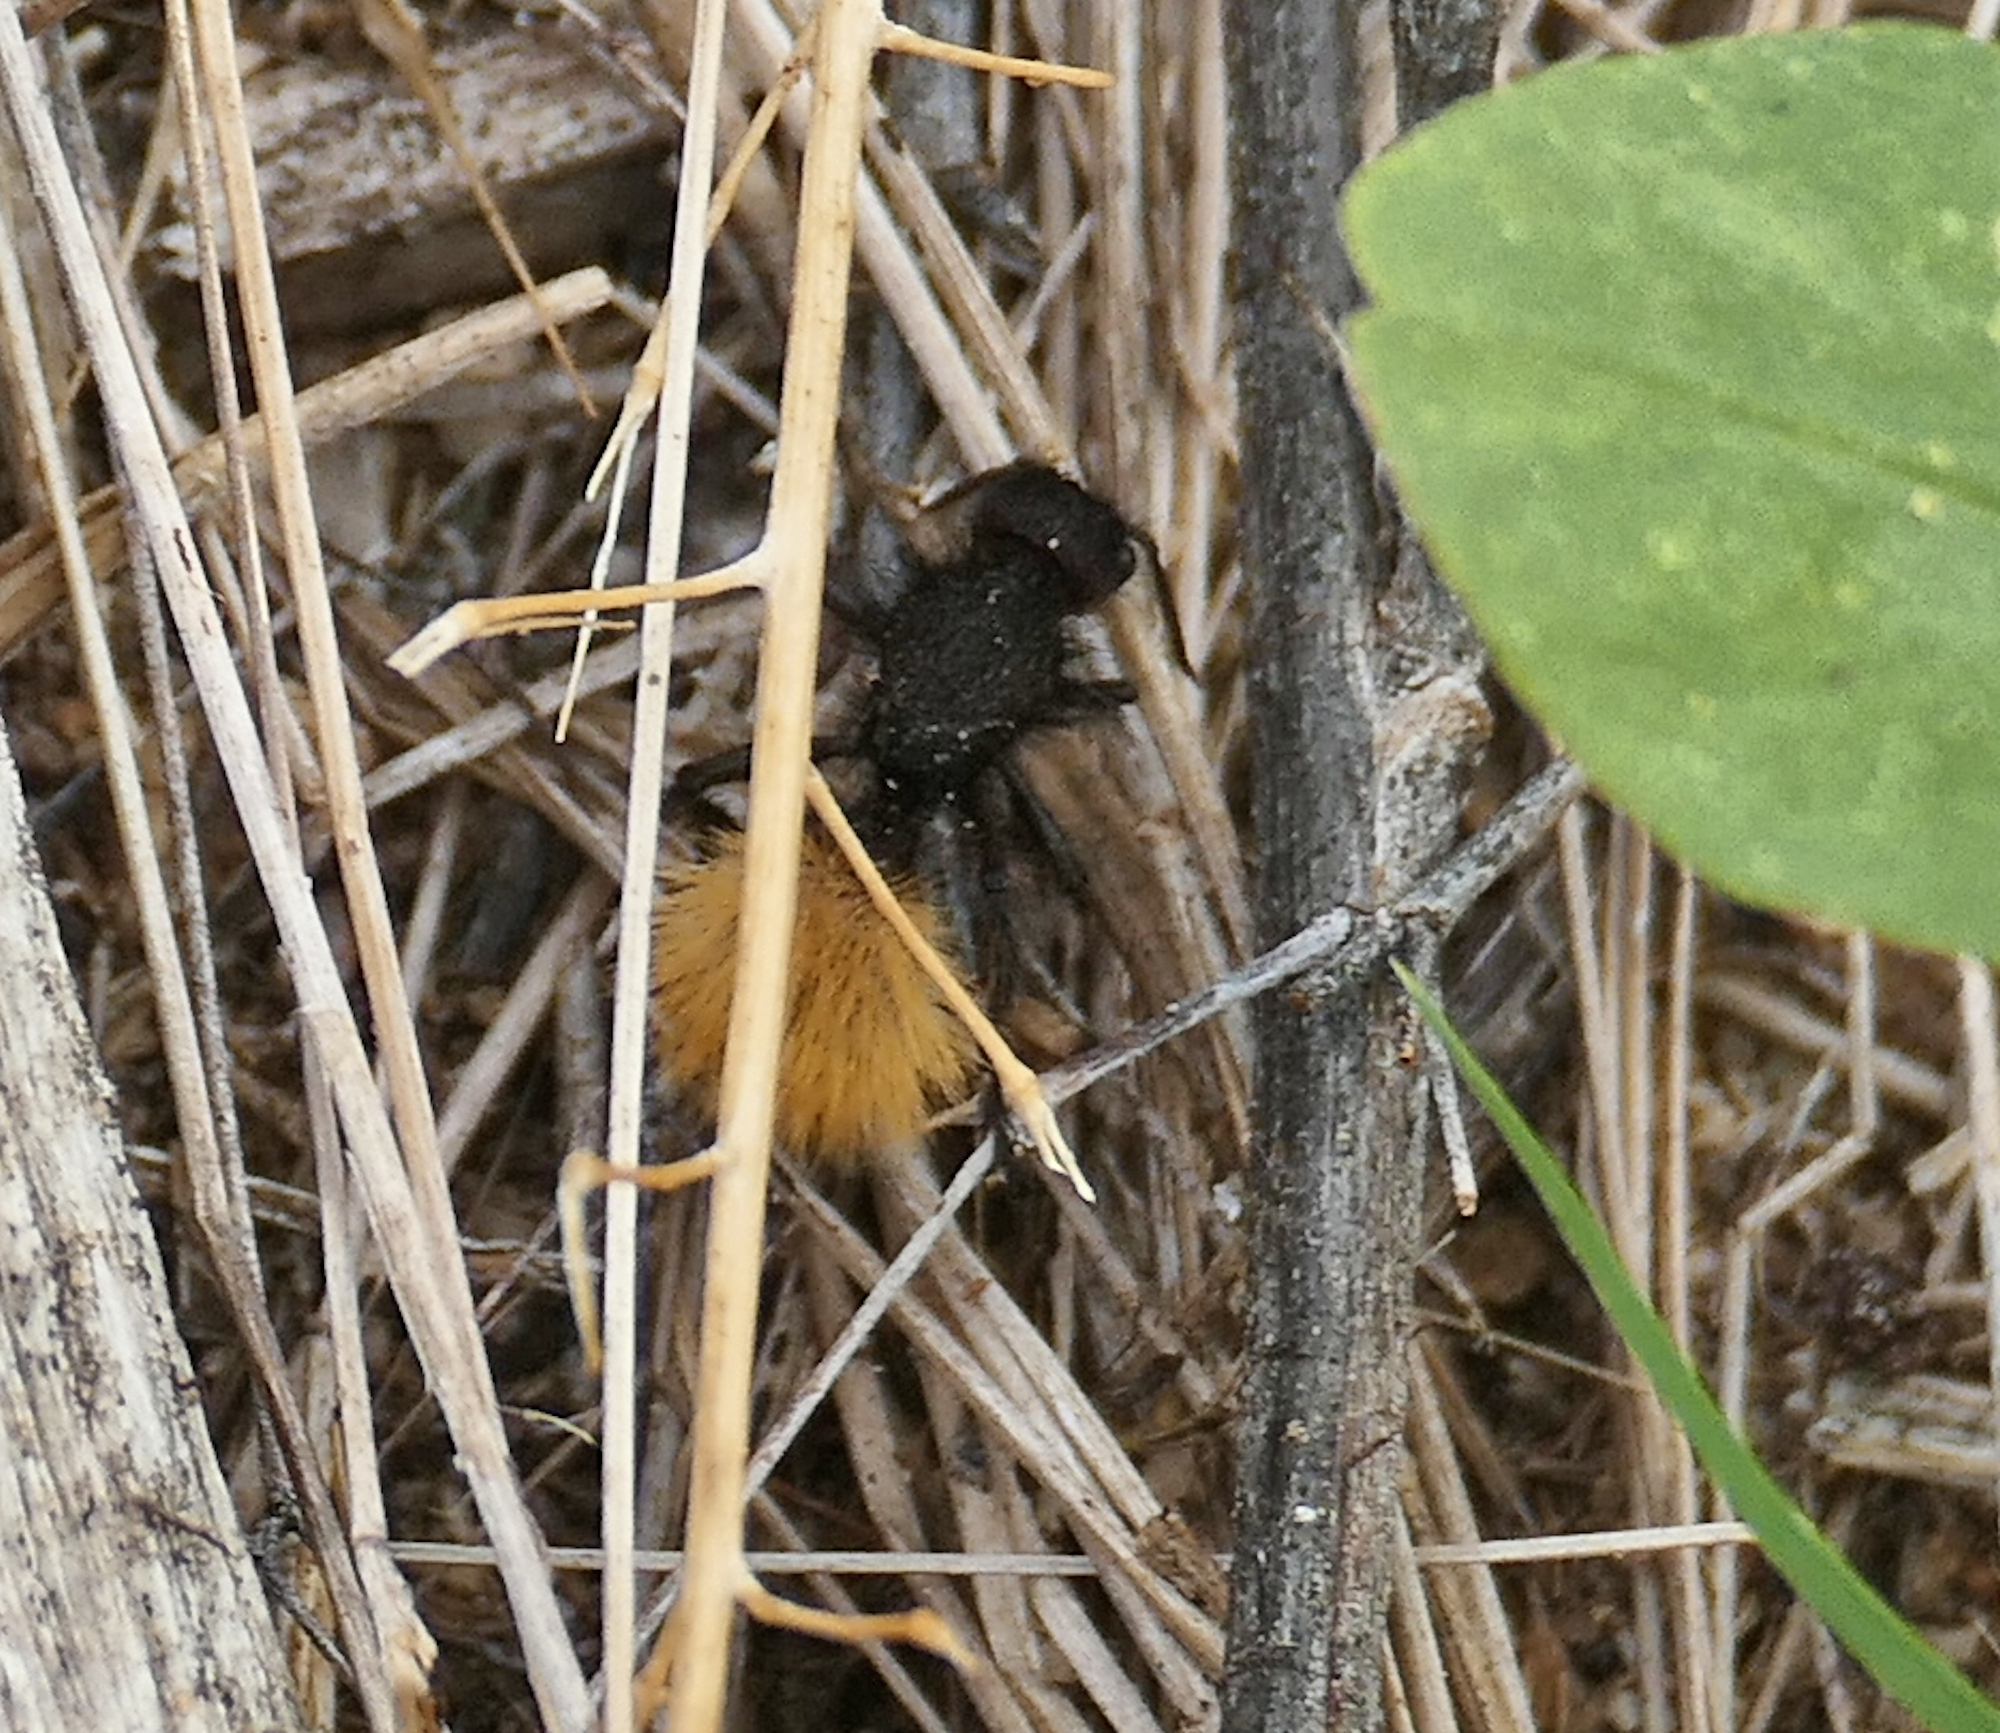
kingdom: Animalia
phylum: Arthropoda
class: Insecta
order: Hymenoptera
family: Mutillidae
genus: Dasymutilla
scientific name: Dasymutilla
